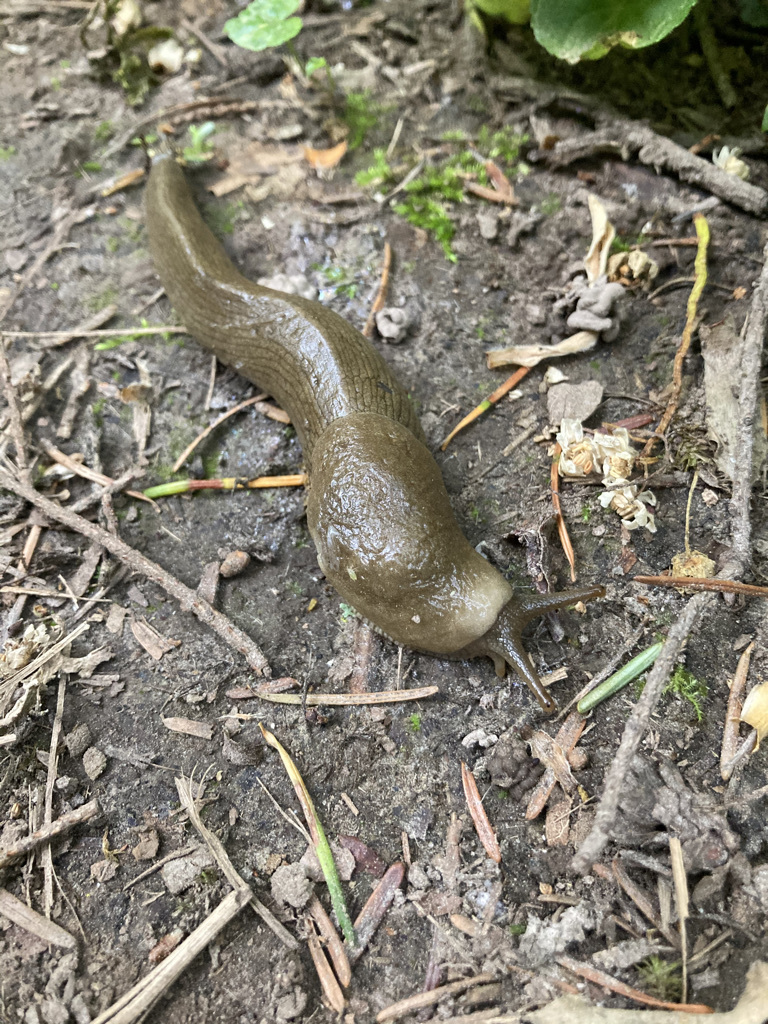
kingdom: Animalia
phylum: Mollusca
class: Gastropoda
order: Stylommatophora
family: Ariolimacidae
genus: Ariolimax
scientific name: Ariolimax columbianus
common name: Pacific banana slug
